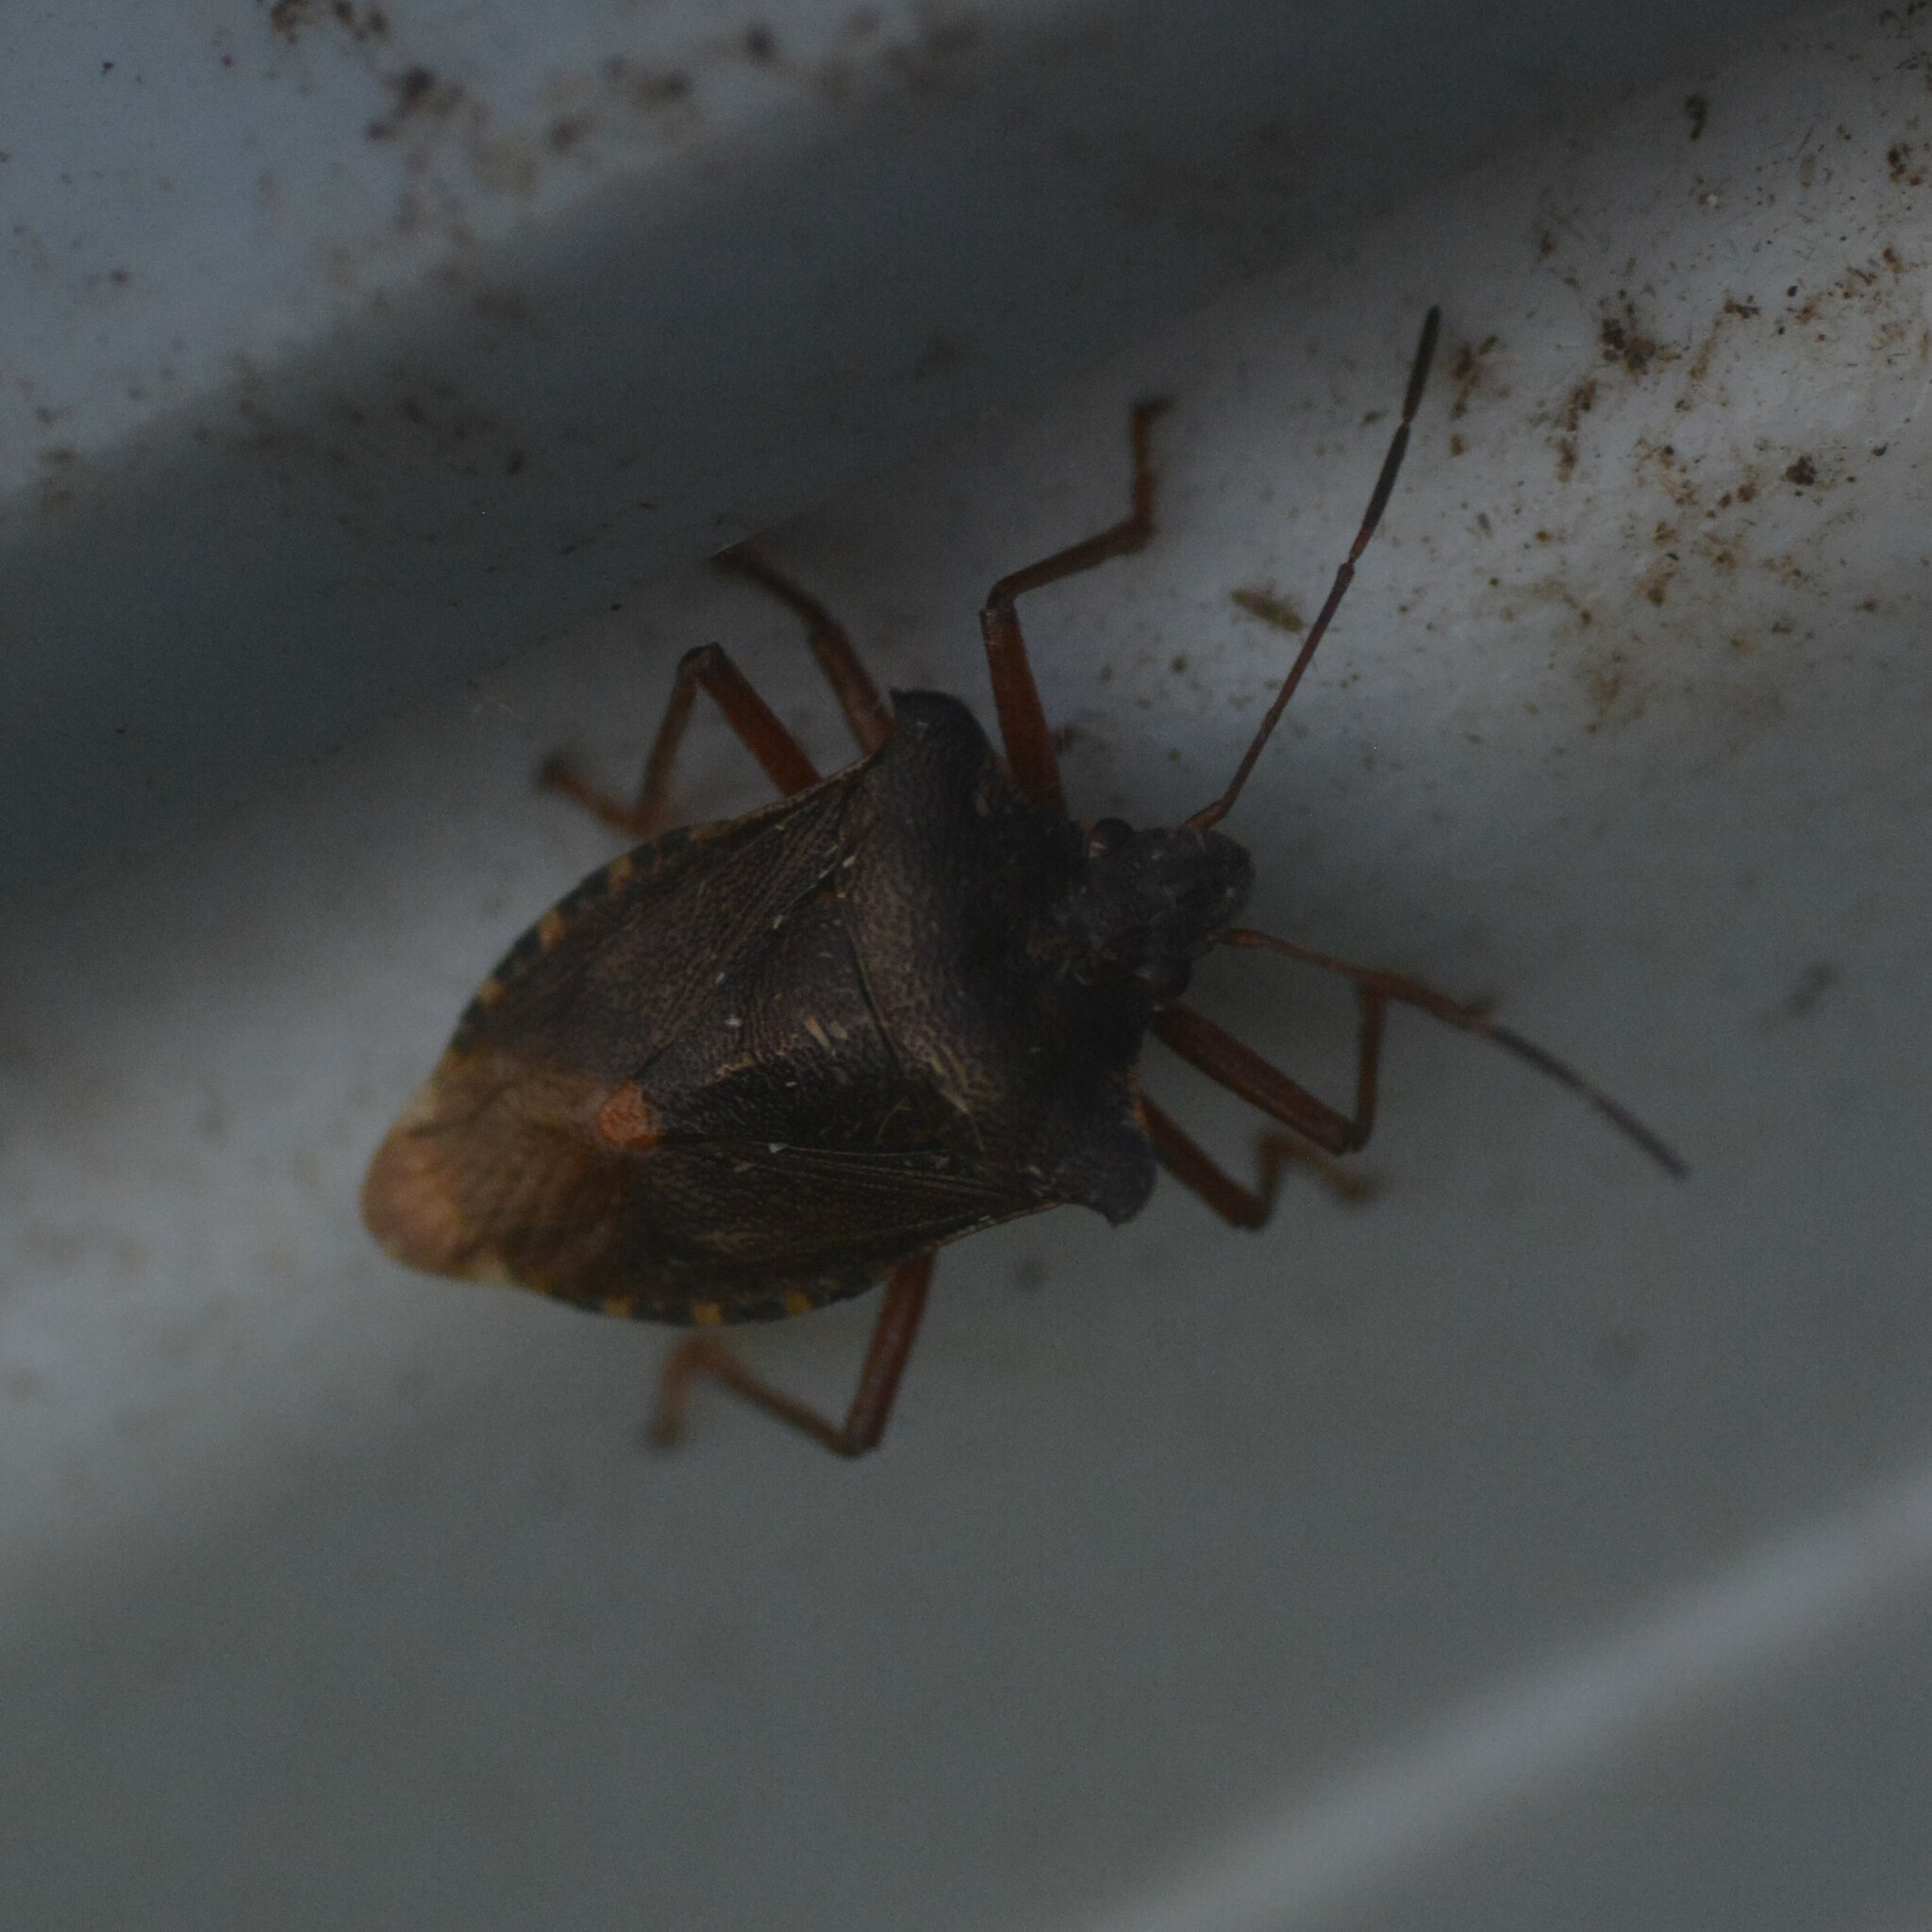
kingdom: Animalia
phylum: Arthropoda
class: Insecta
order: Hemiptera
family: Pentatomidae
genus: Pentatoma
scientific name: Pentatoma rufipes
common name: Forest bug
